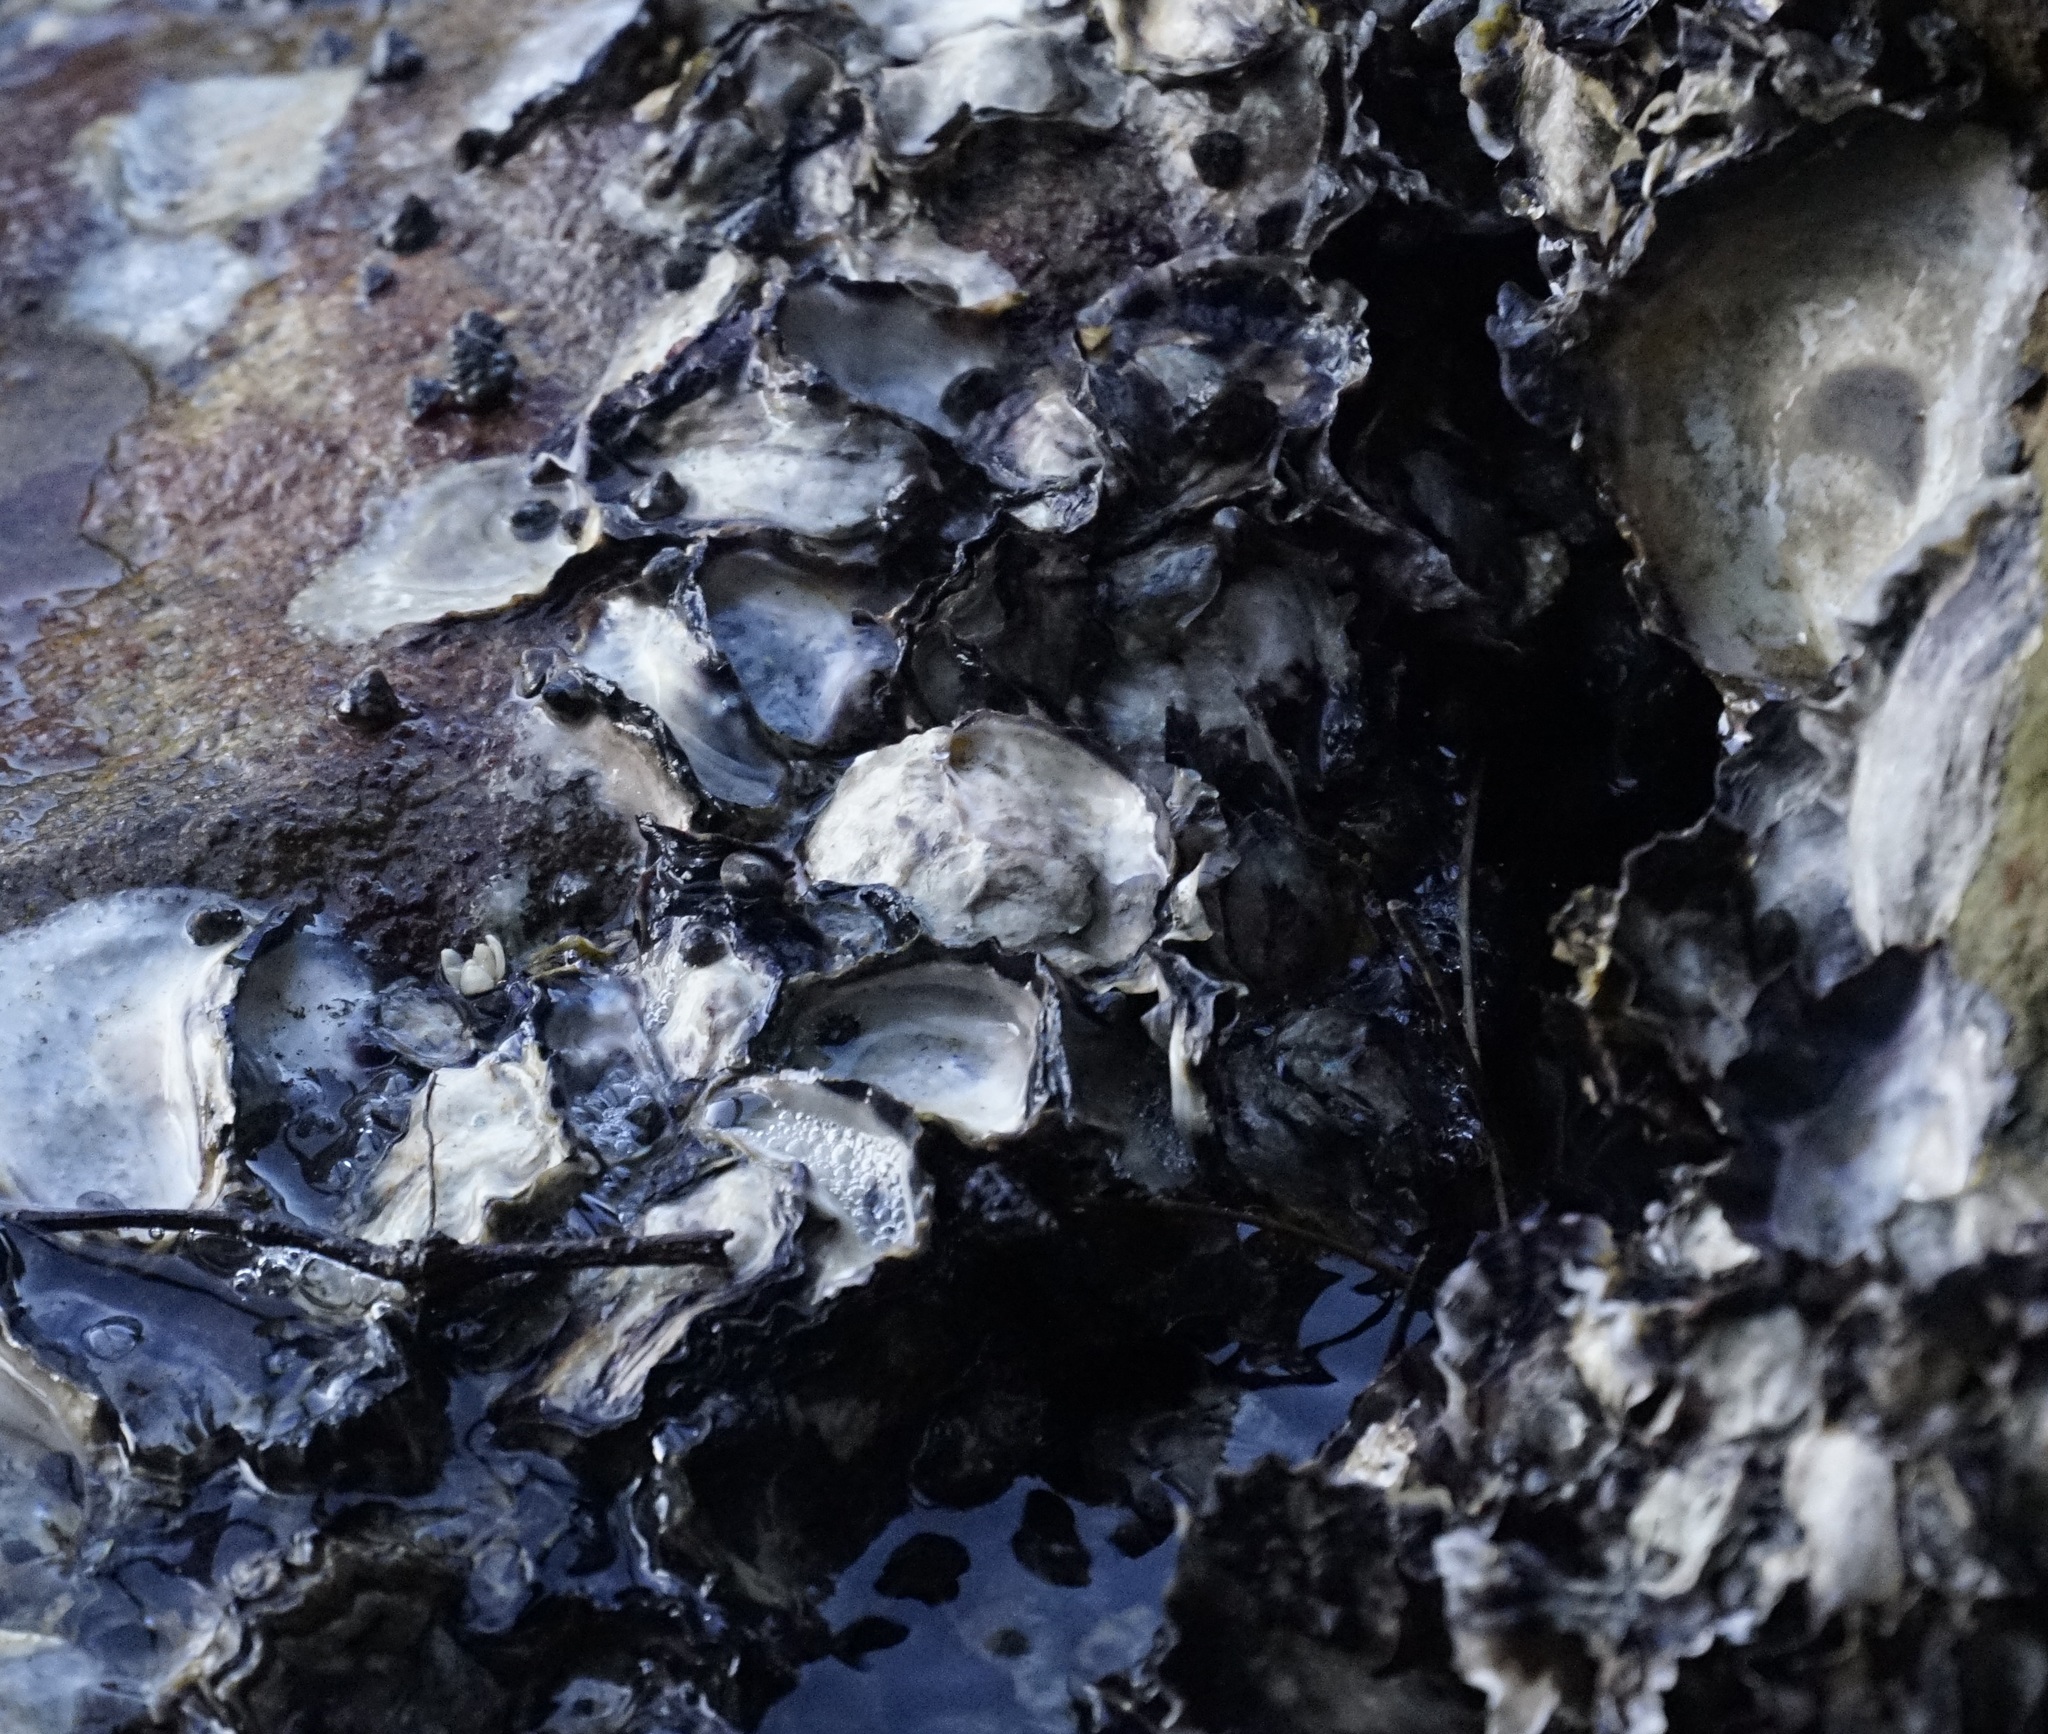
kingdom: Animalia
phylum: Mollusca
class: Bivalvia
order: Ostreida
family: Ostreidae
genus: Saccostrea
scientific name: Saccostrea glomerata
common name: Sydney cupped oyster
